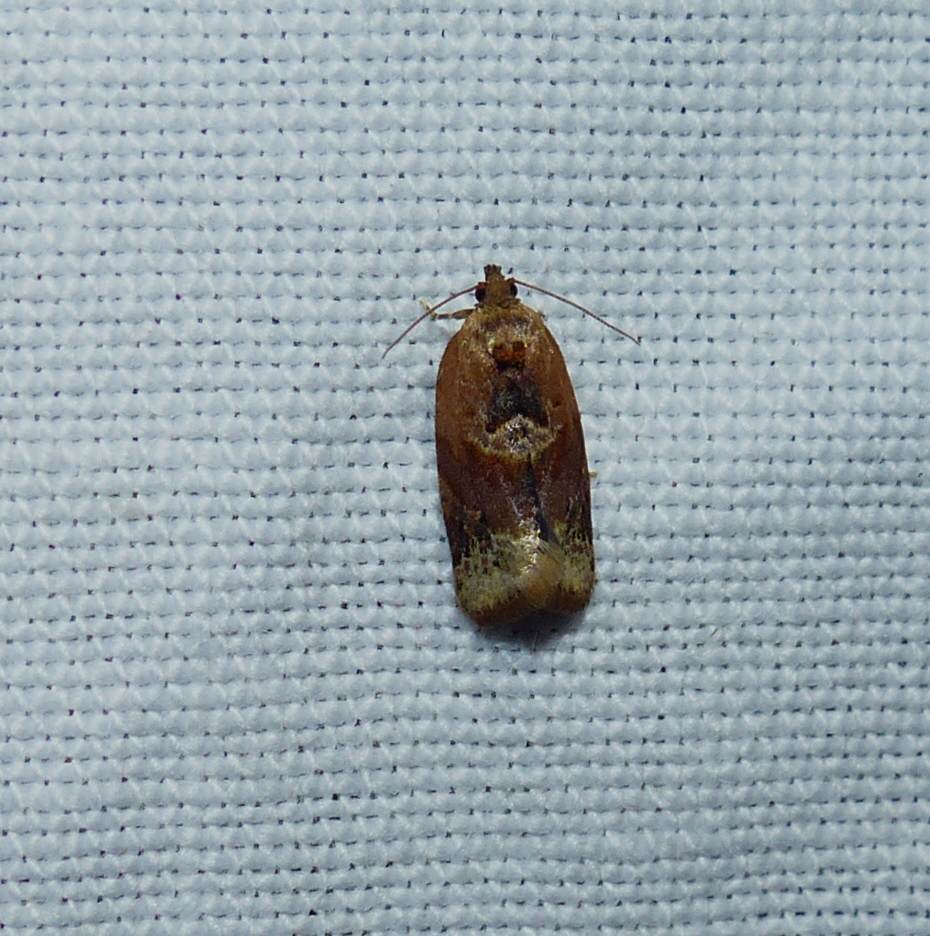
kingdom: Animalia
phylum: Arthropoda
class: Insecta
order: Lepidoptera
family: Tortricidae
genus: Argyrotaenia
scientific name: Argyrotaenia velutinana
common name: Red-banded leafroller moth
